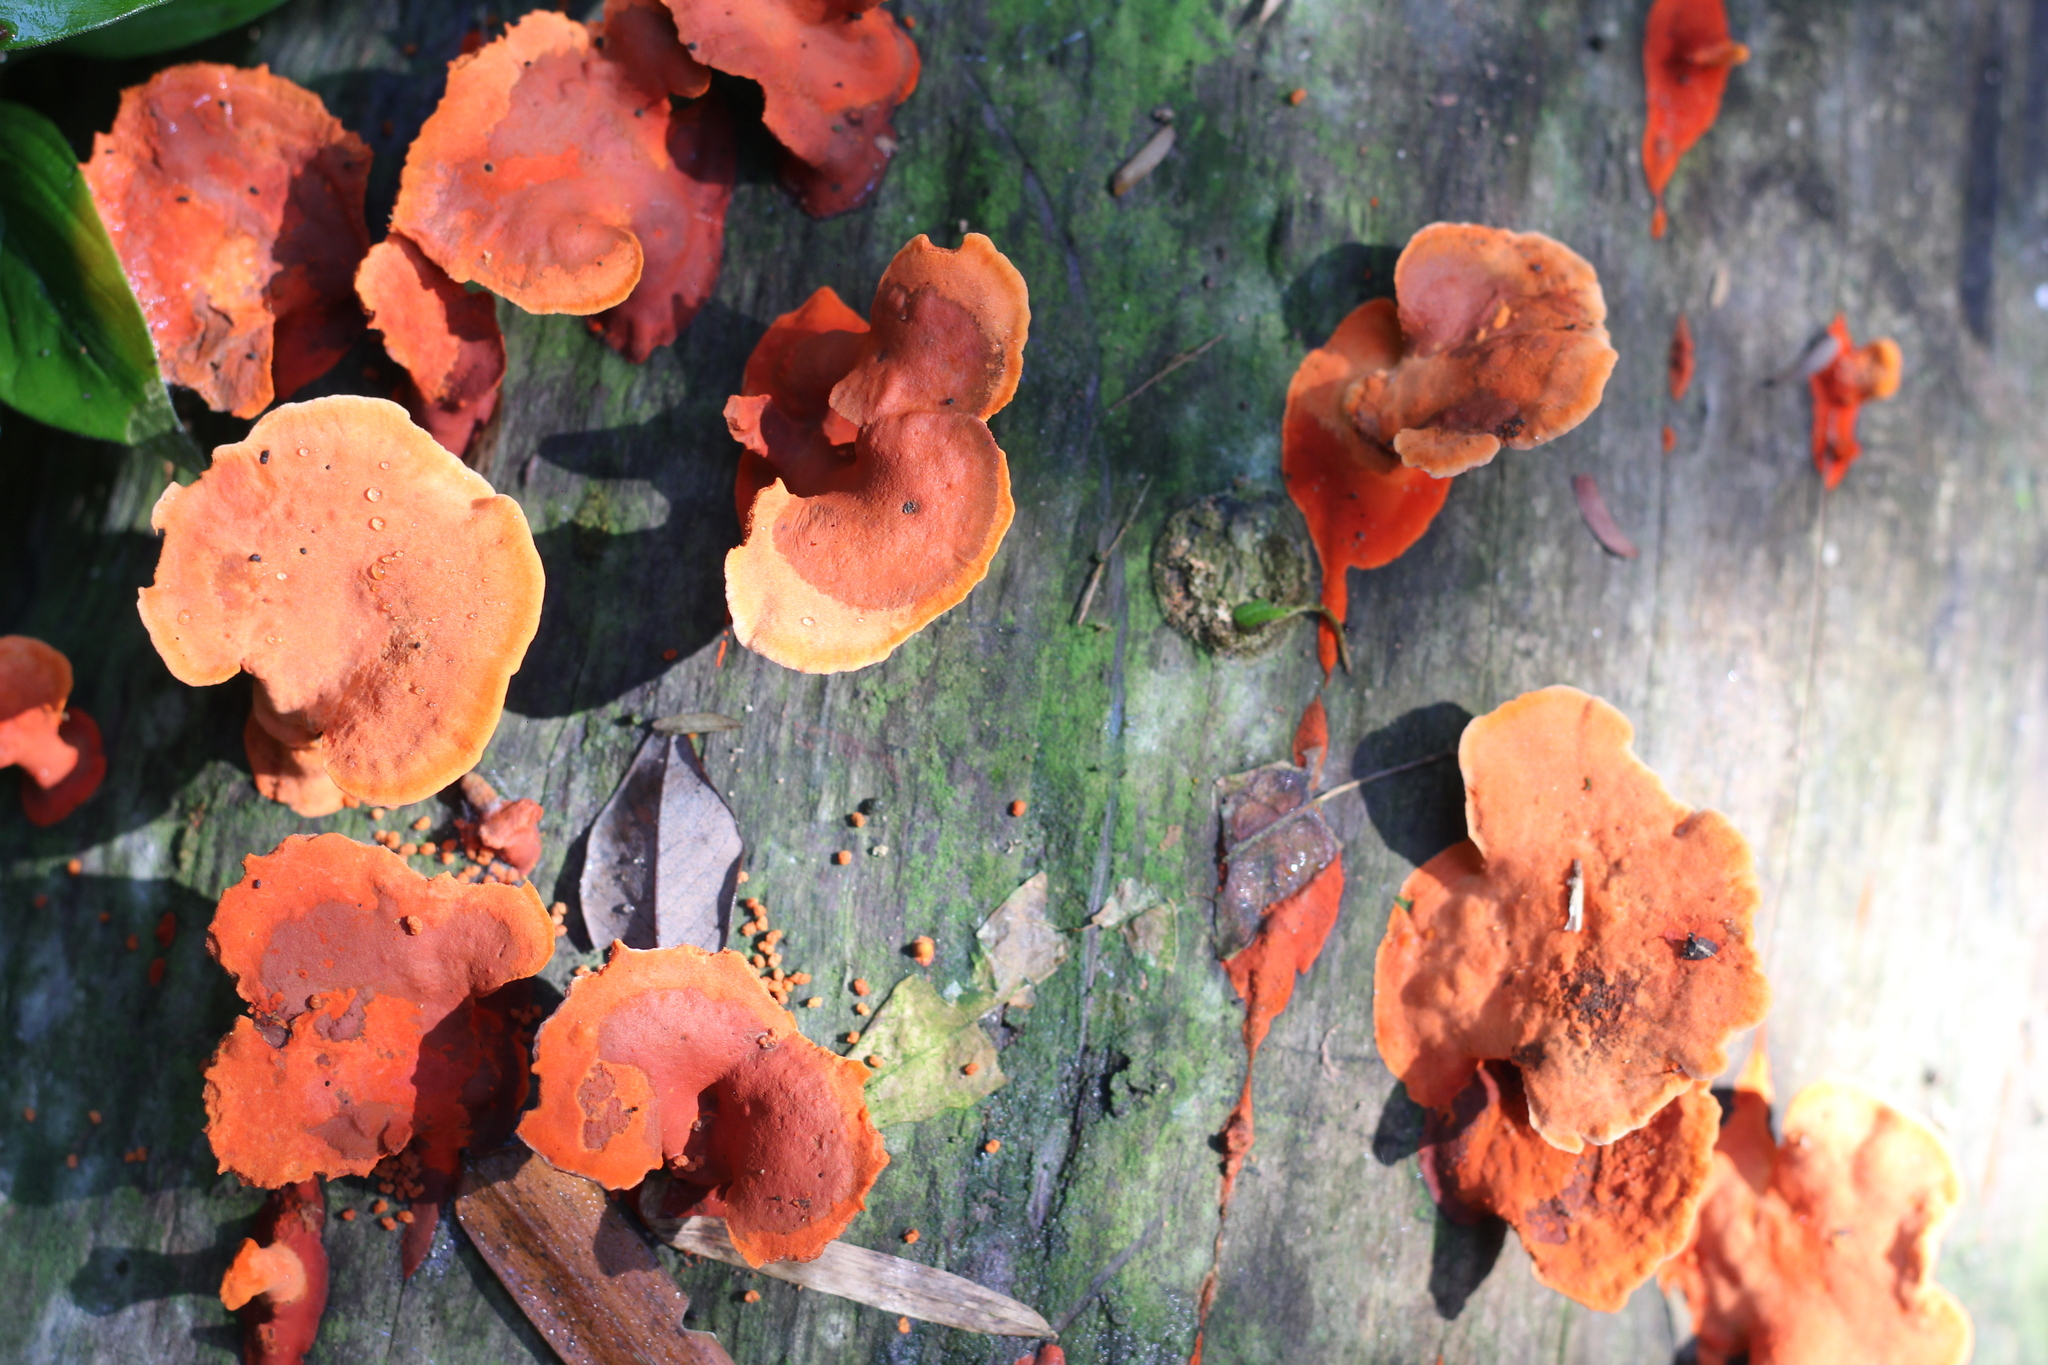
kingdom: Fungi
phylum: Basidiomycota
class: Agaricomycetes
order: Polyporales
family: Polyporaceae
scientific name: Polyporaceae
